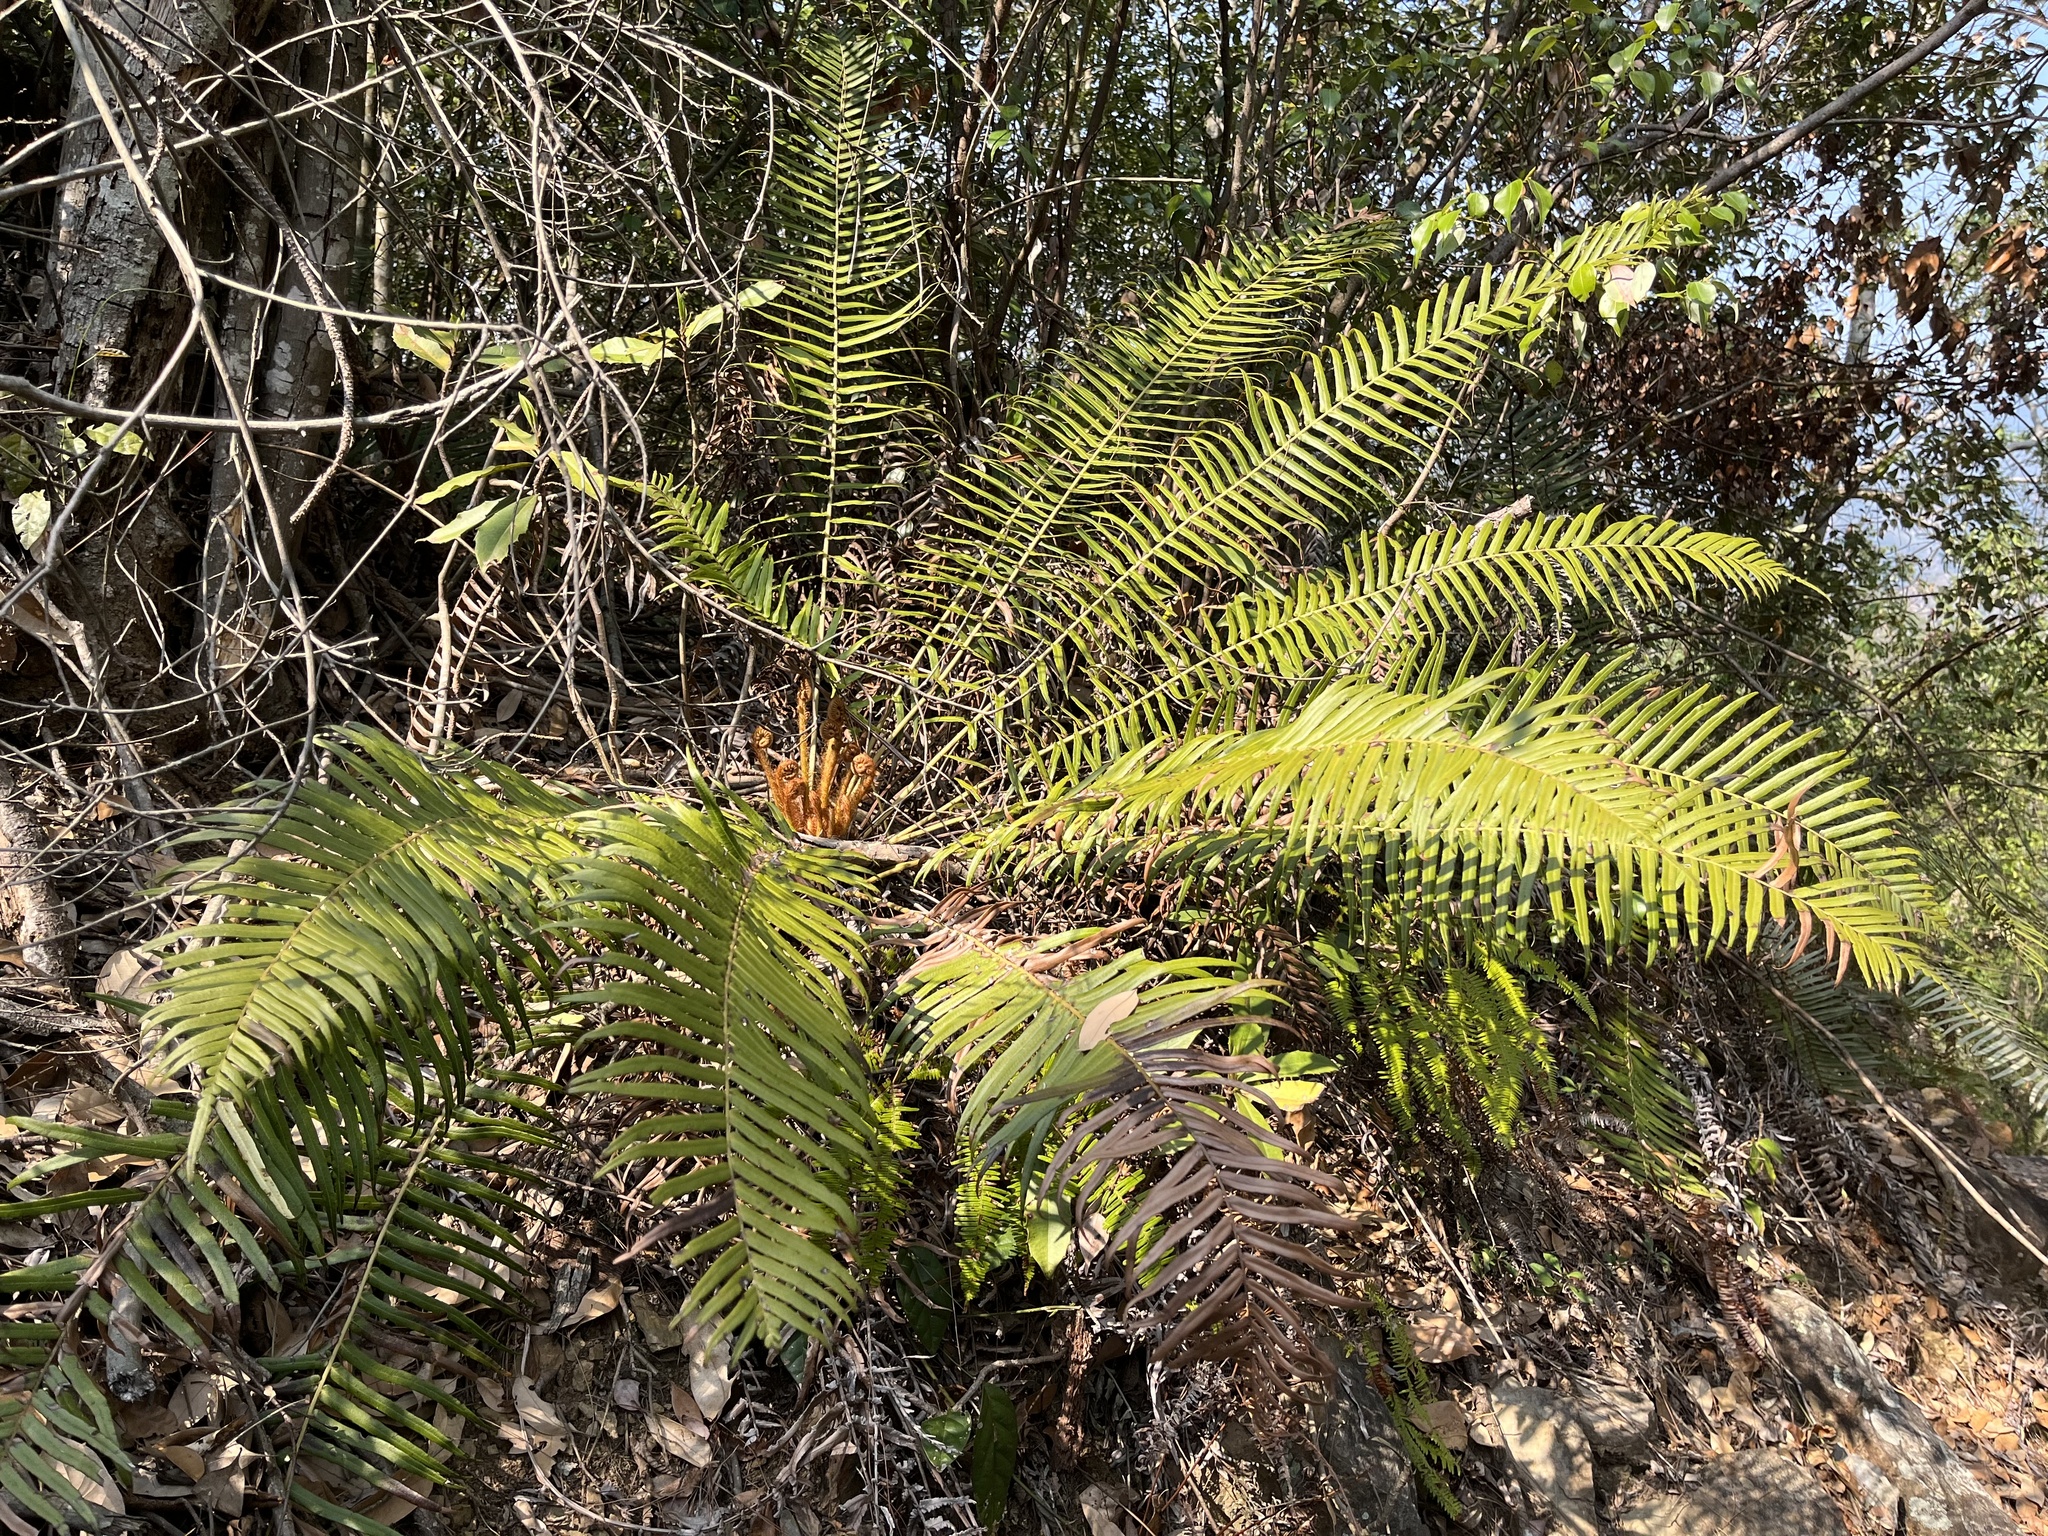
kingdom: Plantae
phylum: Tracheophyta
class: Polypodiopsida
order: Polypodiales
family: Blechnaceae
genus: Brainea
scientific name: Brainea insignis
